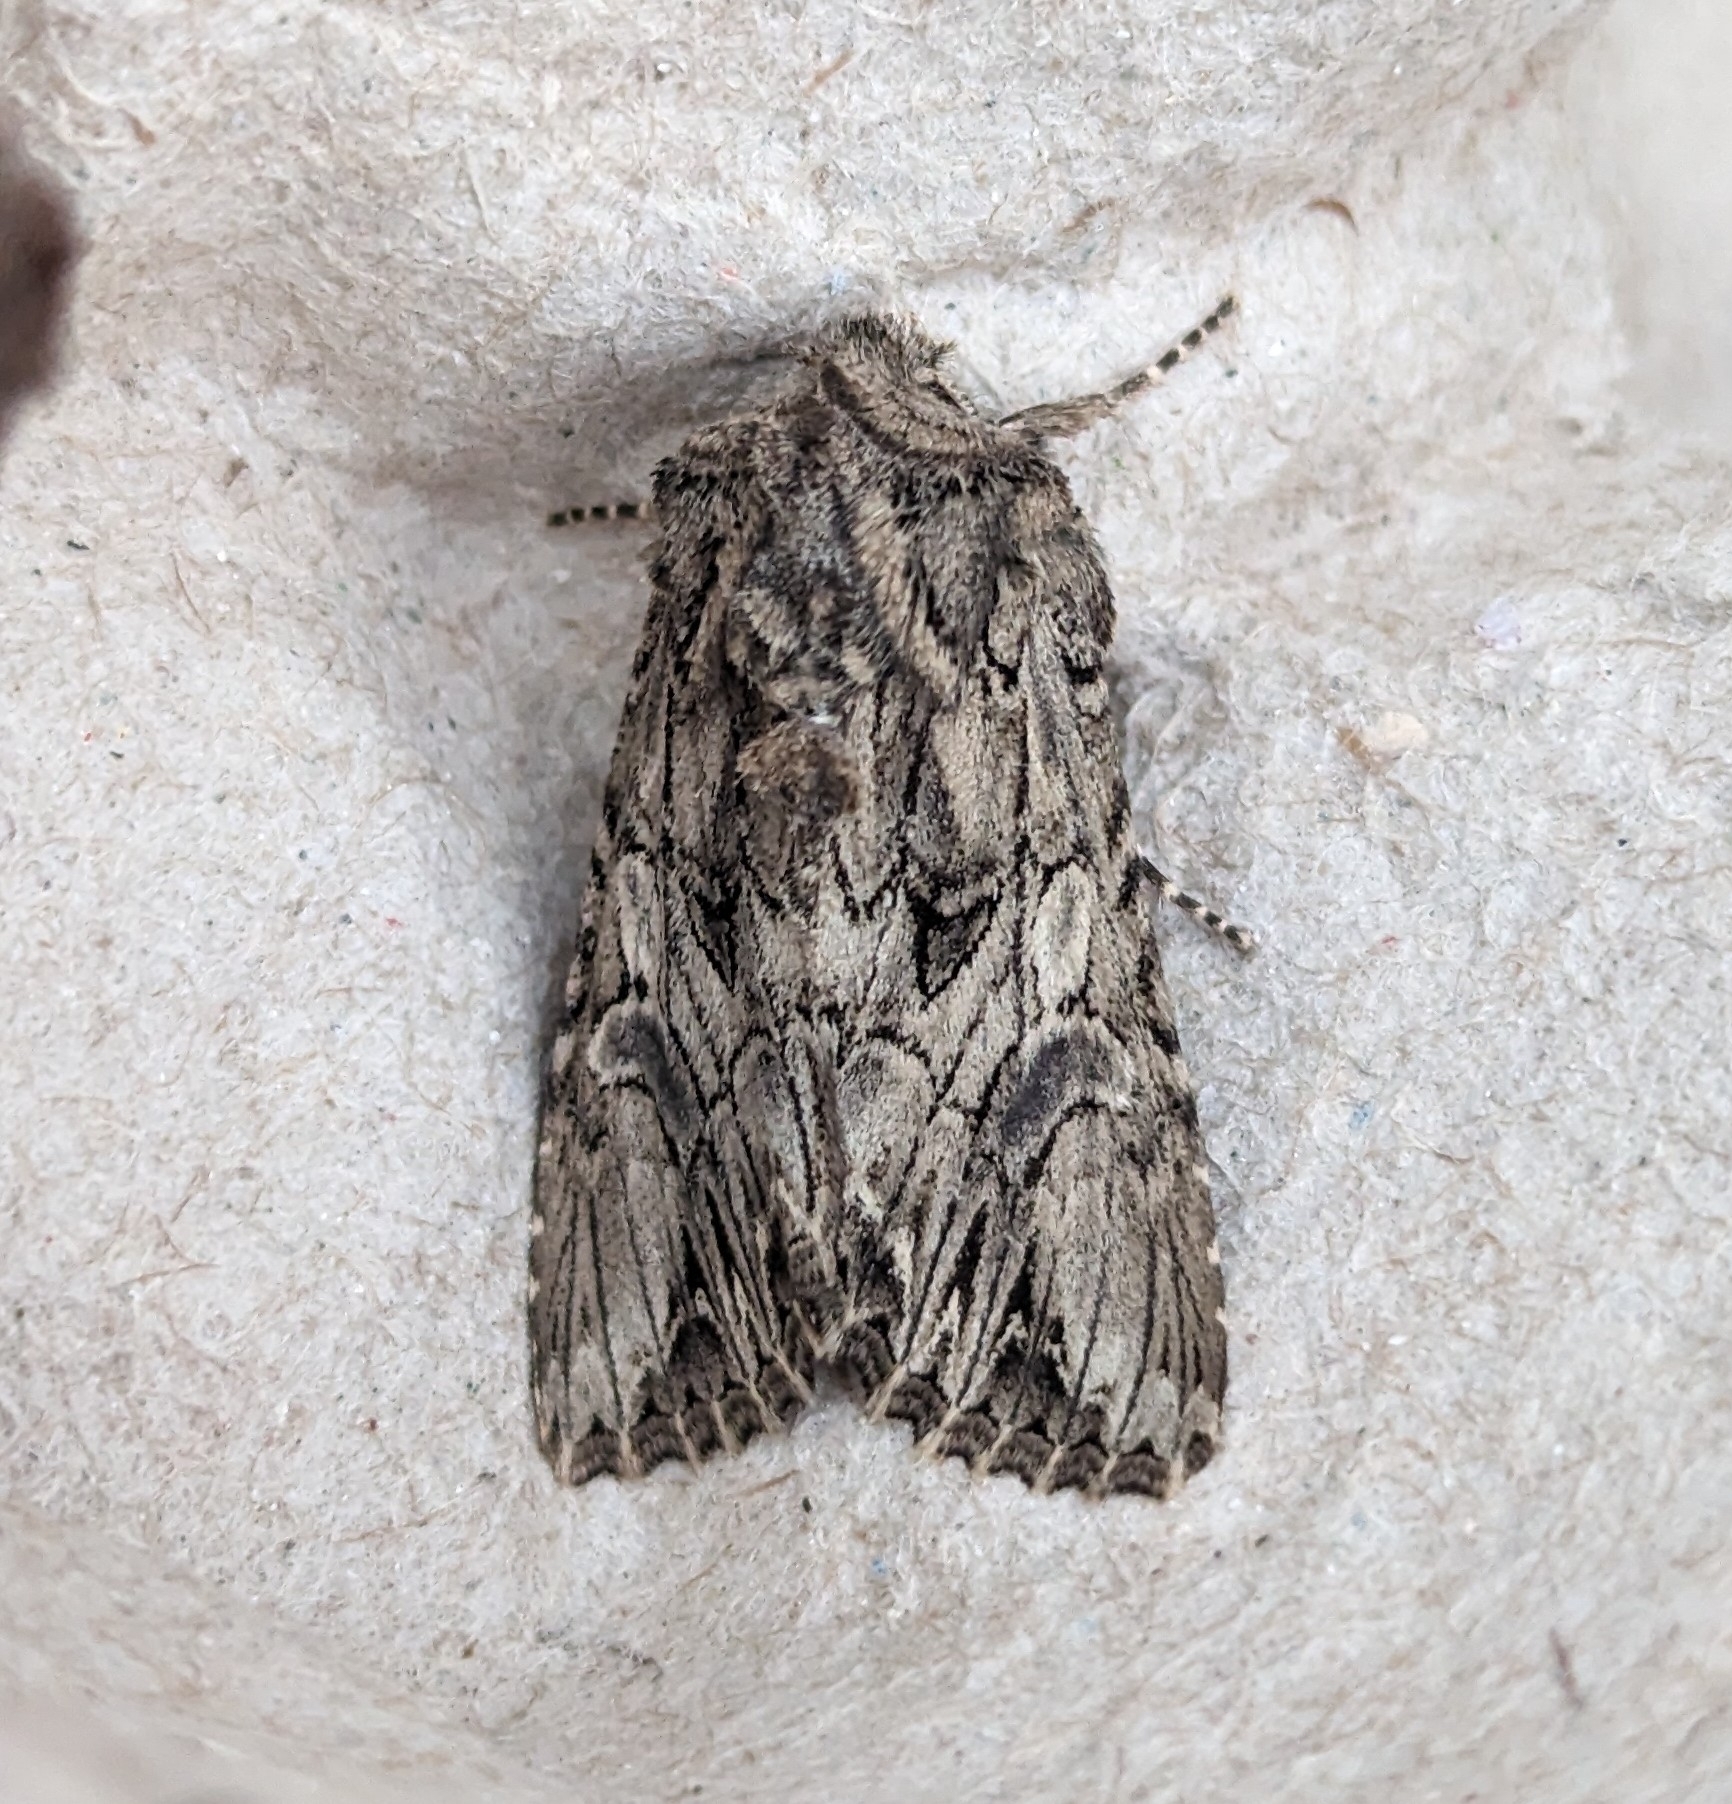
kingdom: Animalia
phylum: Arthropoda
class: Insecta
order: Lepidoptera
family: Noctuidae
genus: Anarta
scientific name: Anarta crotchii
